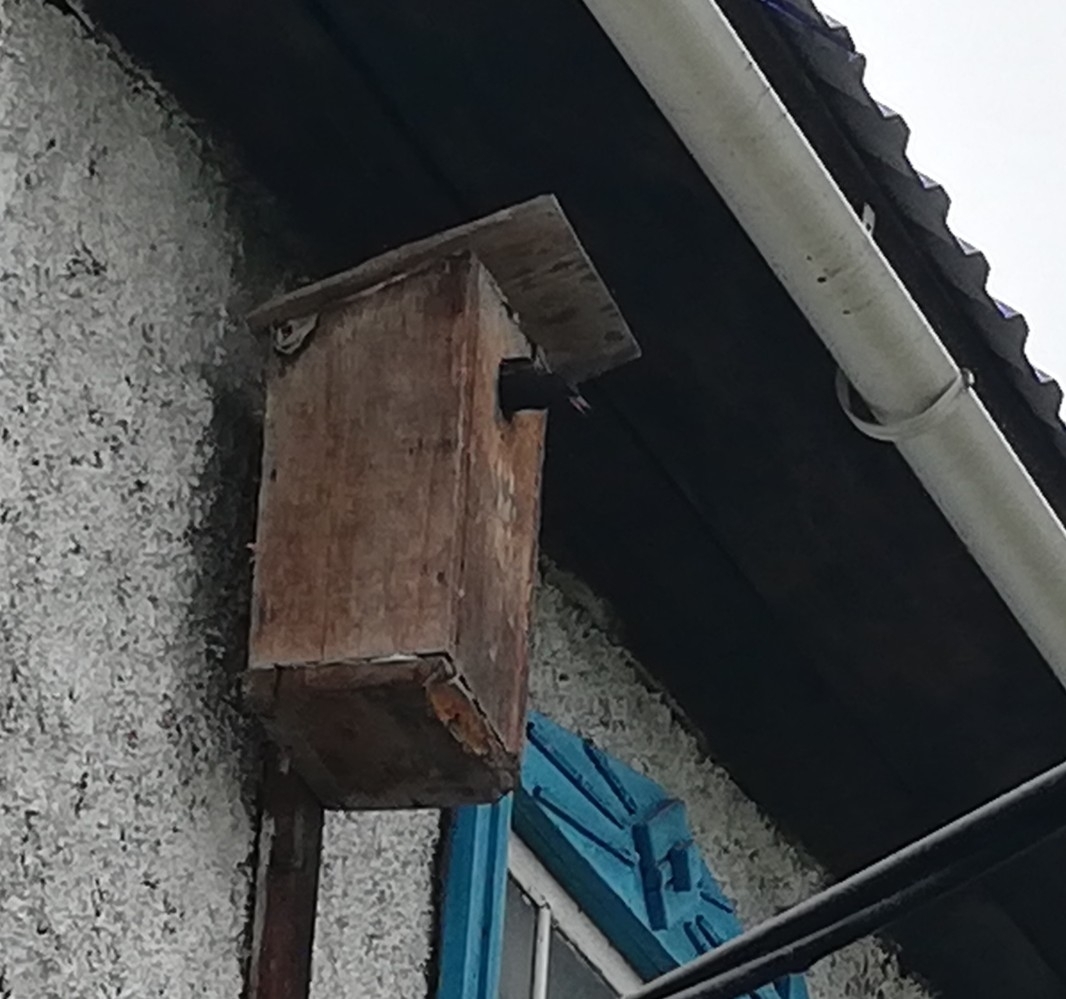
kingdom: Animalia
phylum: Chordata
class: Aves
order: Passeriformes
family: Sturnidae
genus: Sturnus
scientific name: Sturnus vulgaris
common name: Common starling
